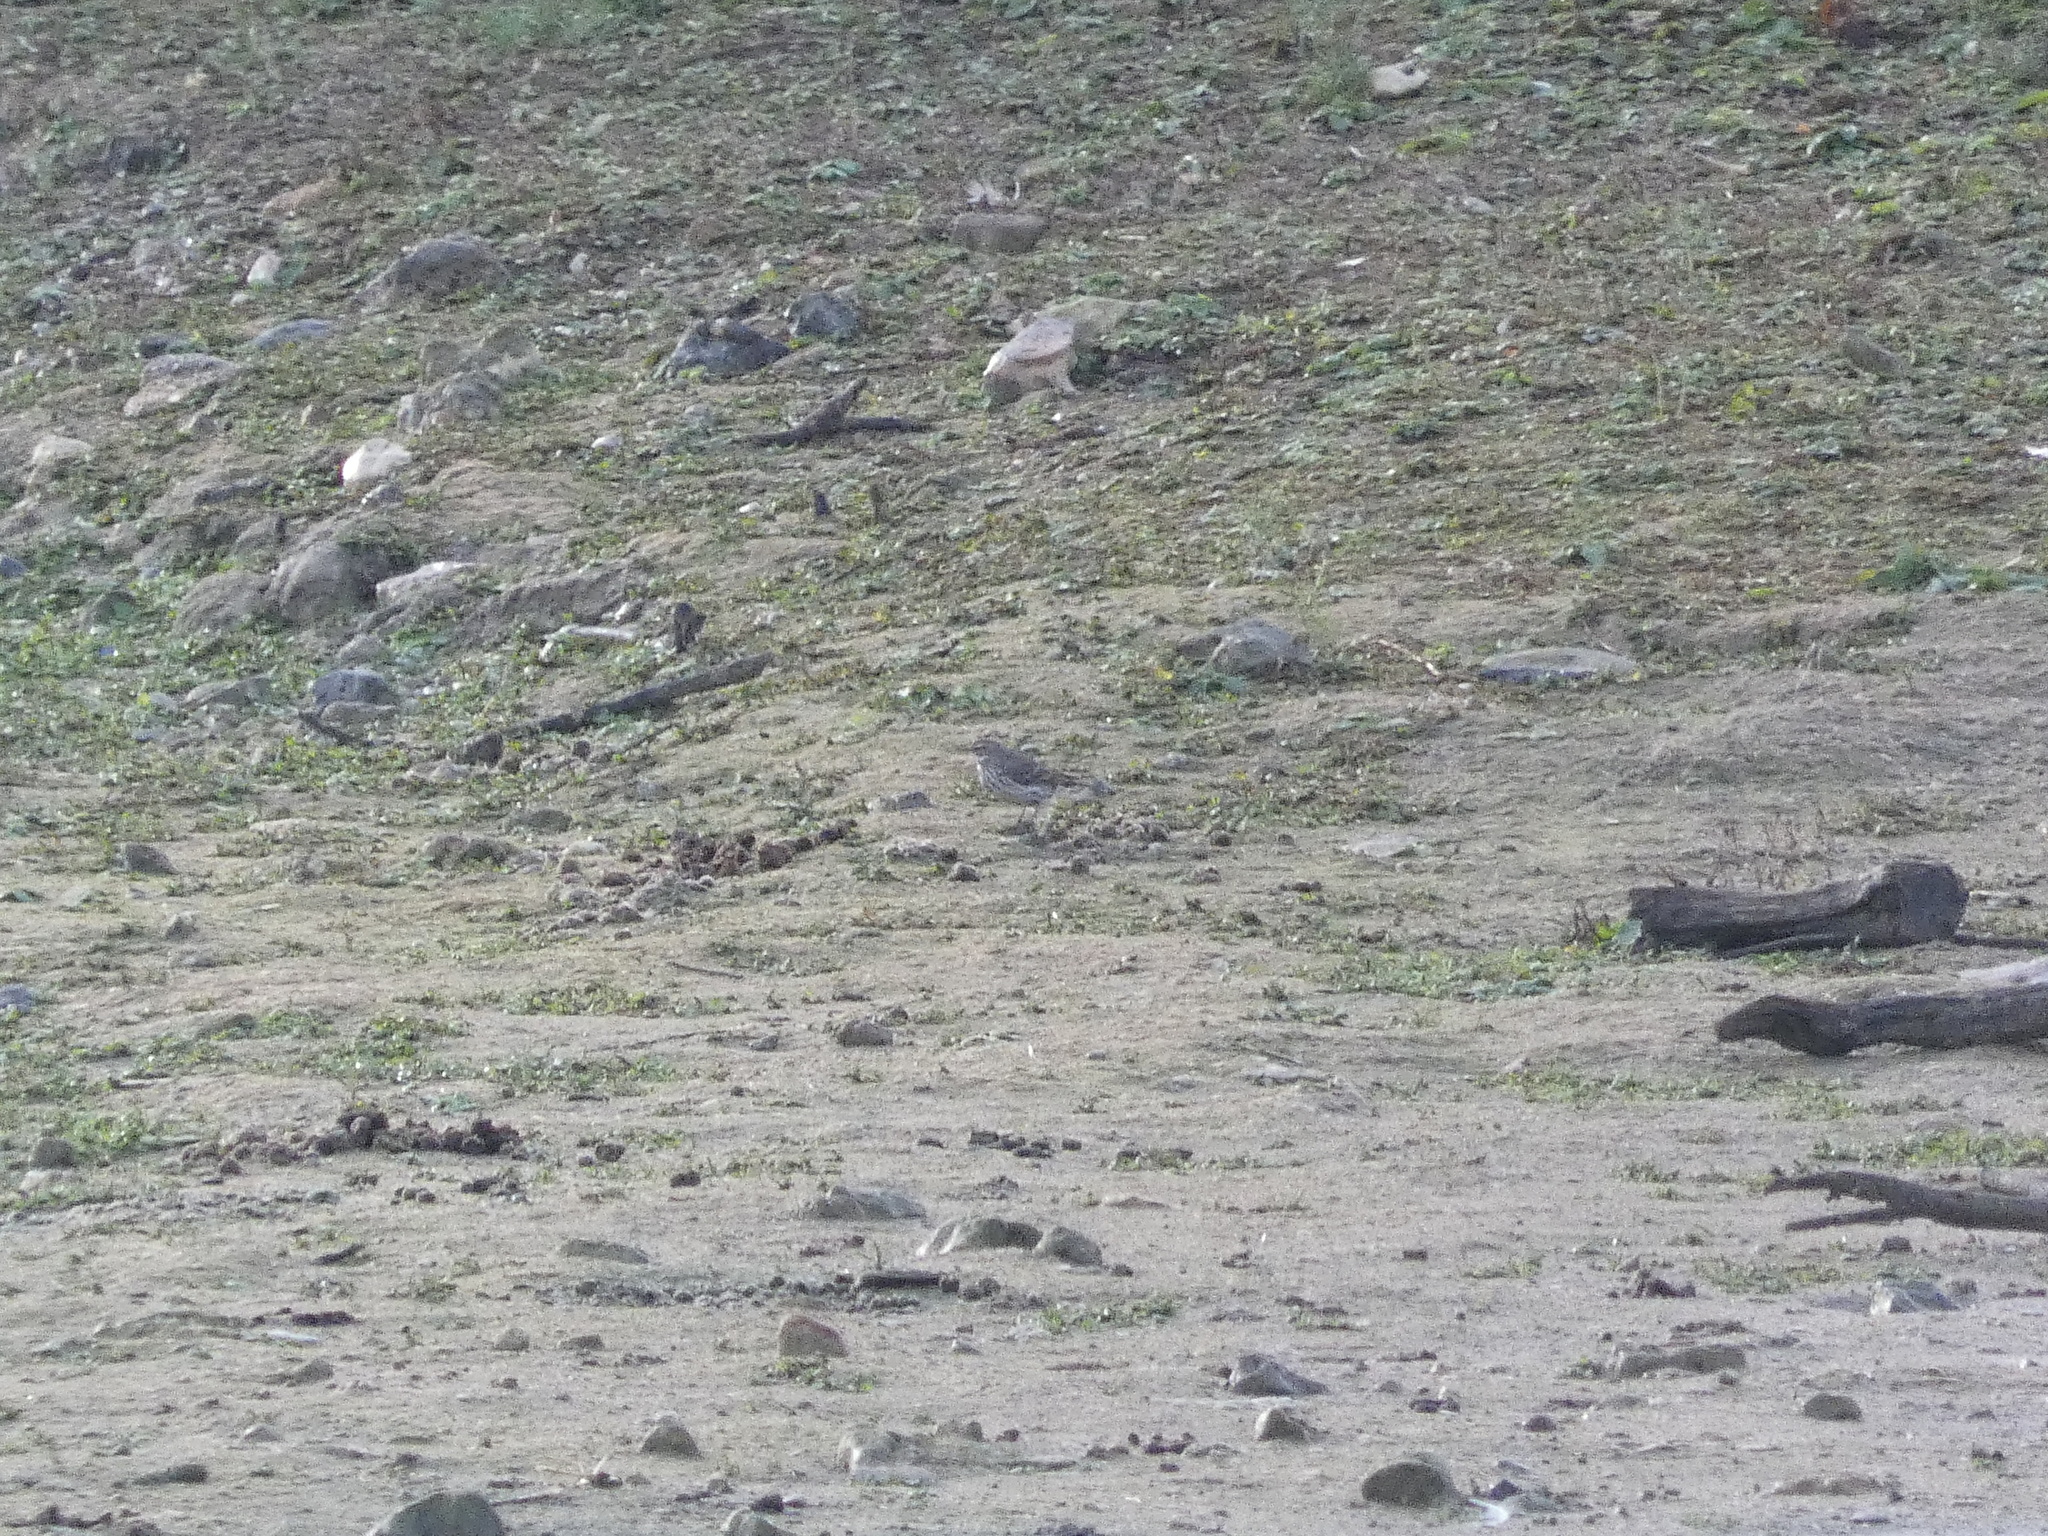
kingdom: Animalia
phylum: Chordata
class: Aves
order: Passeriformes
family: Motacillidae
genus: Anthus
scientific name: Anthus spinoletta
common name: Water pipit
